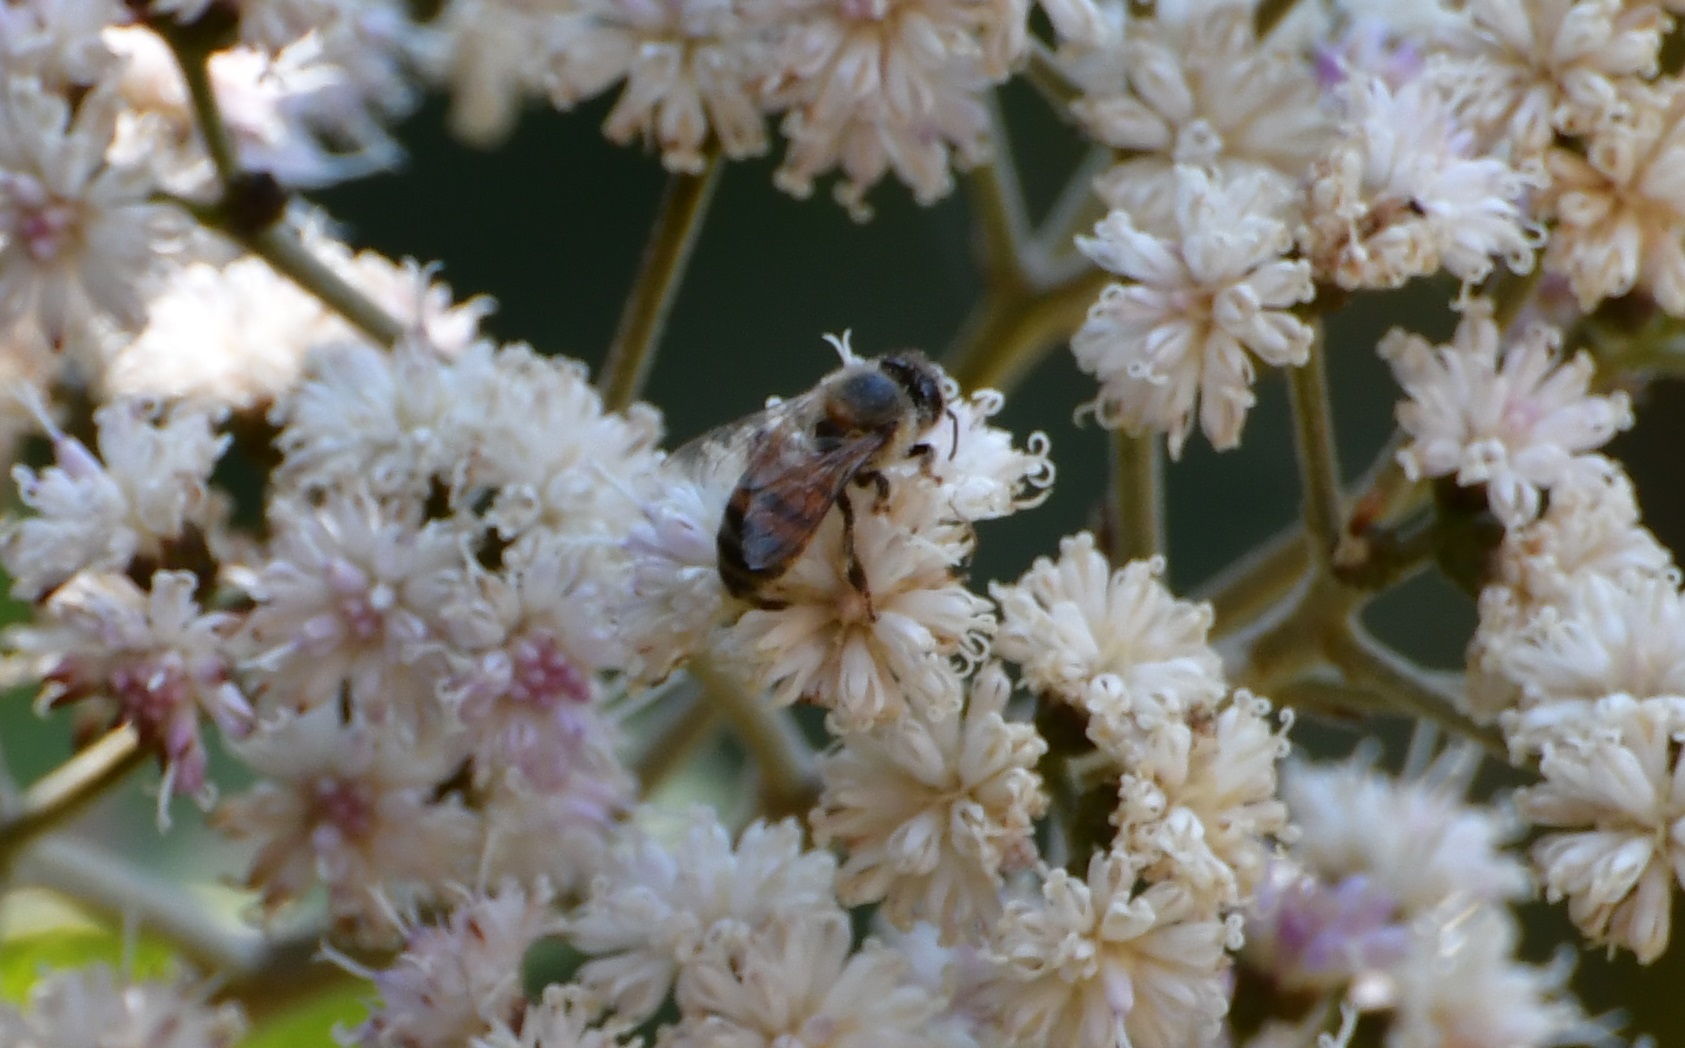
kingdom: Animalia
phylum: Arthropoda
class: Insecta
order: Hymenoptera
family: Apidae
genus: Apis
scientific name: Apis mellifera
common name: Honey bee
